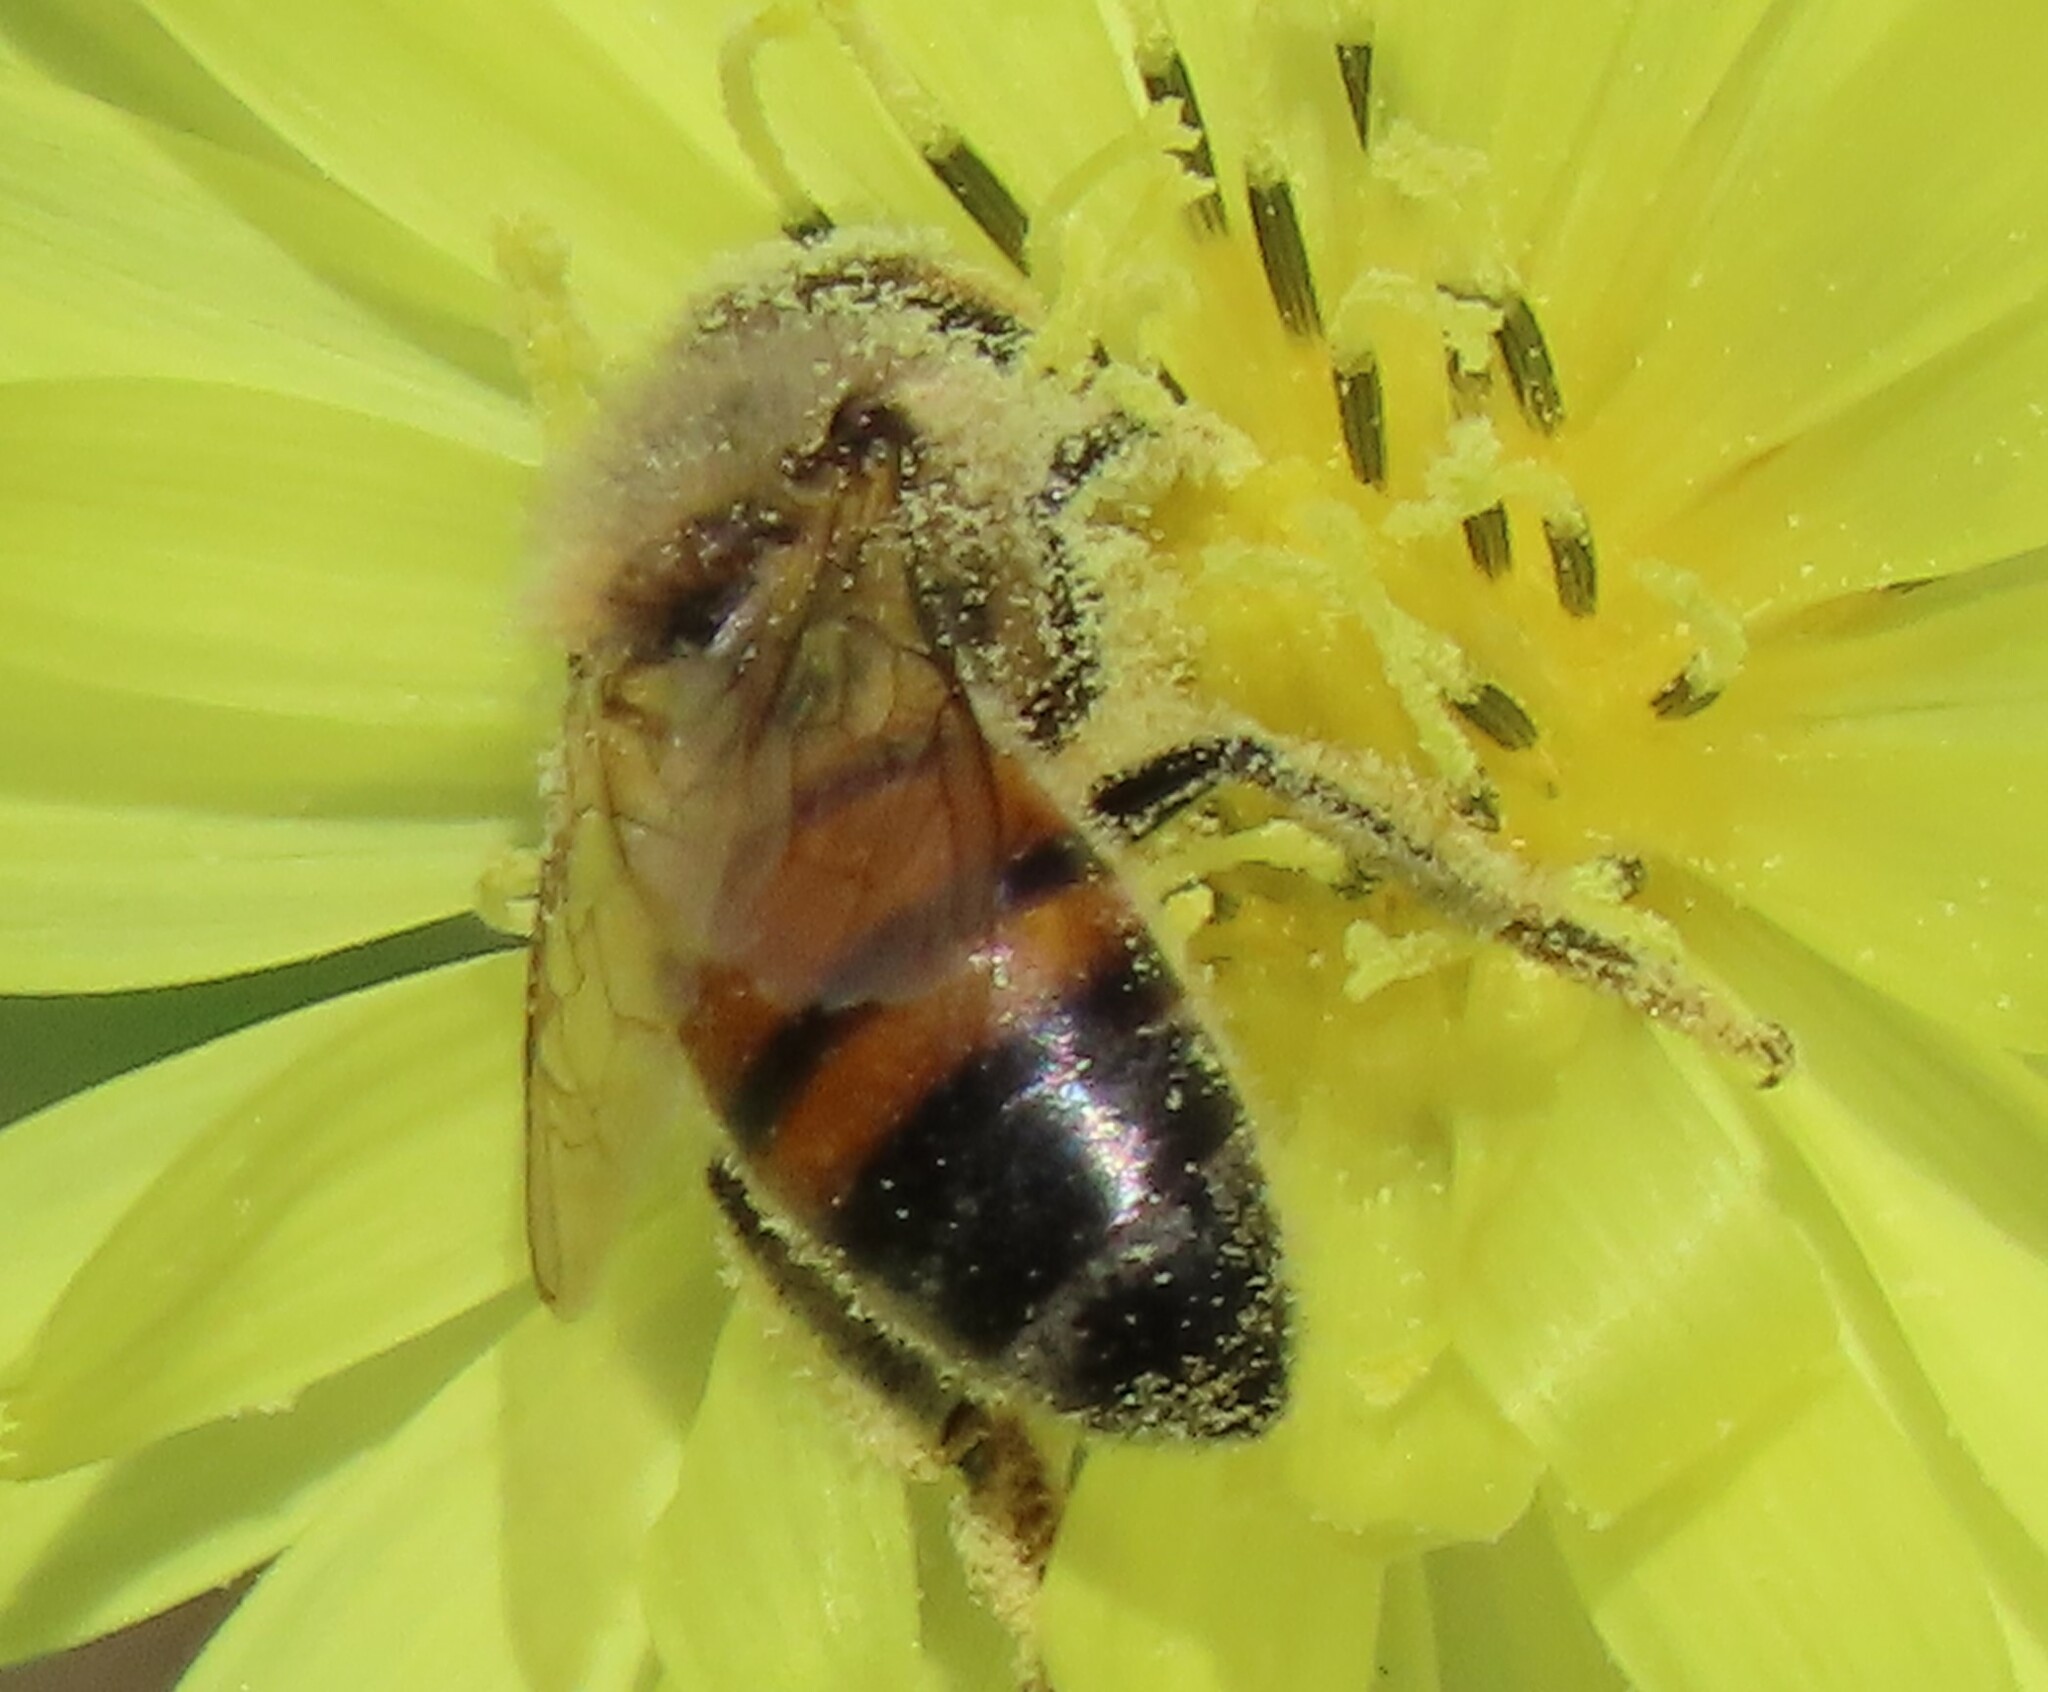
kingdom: Animalia
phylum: Arthropoda
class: Insecta
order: Hymenoptera
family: Apidae
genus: Apis
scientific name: Apis mellifera
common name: Honey bee
